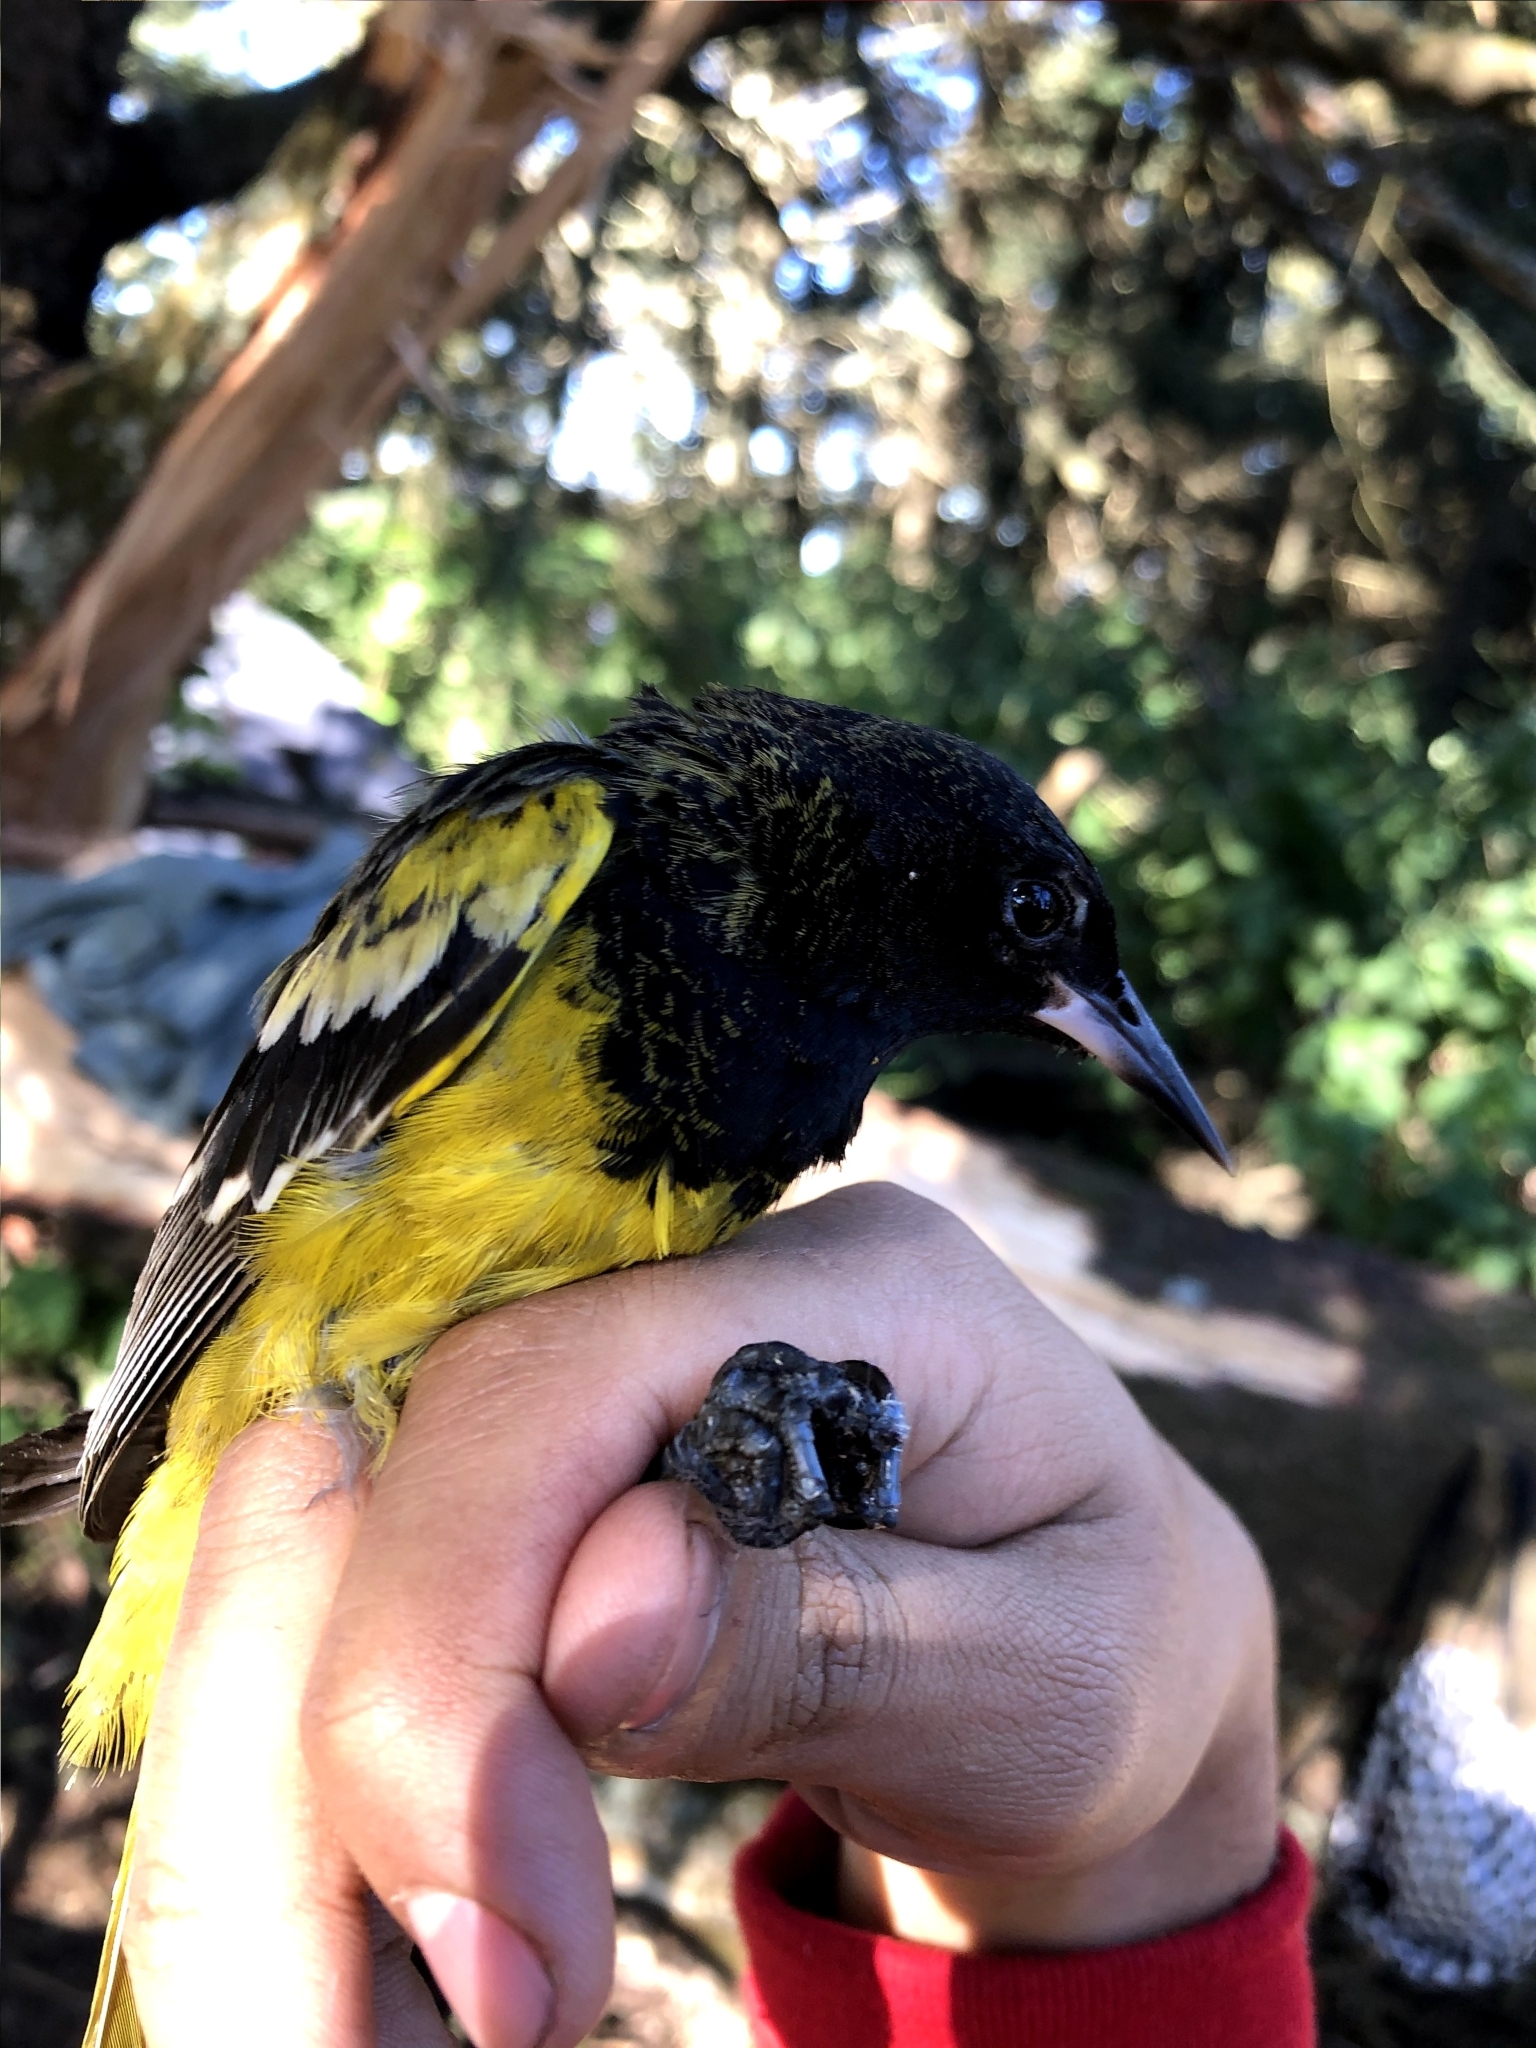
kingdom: Animalia
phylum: Chordata
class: Aves
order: Passeriformes
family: Icteridae
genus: Icterus
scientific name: Icterus parisorum
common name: Scott's oriole
